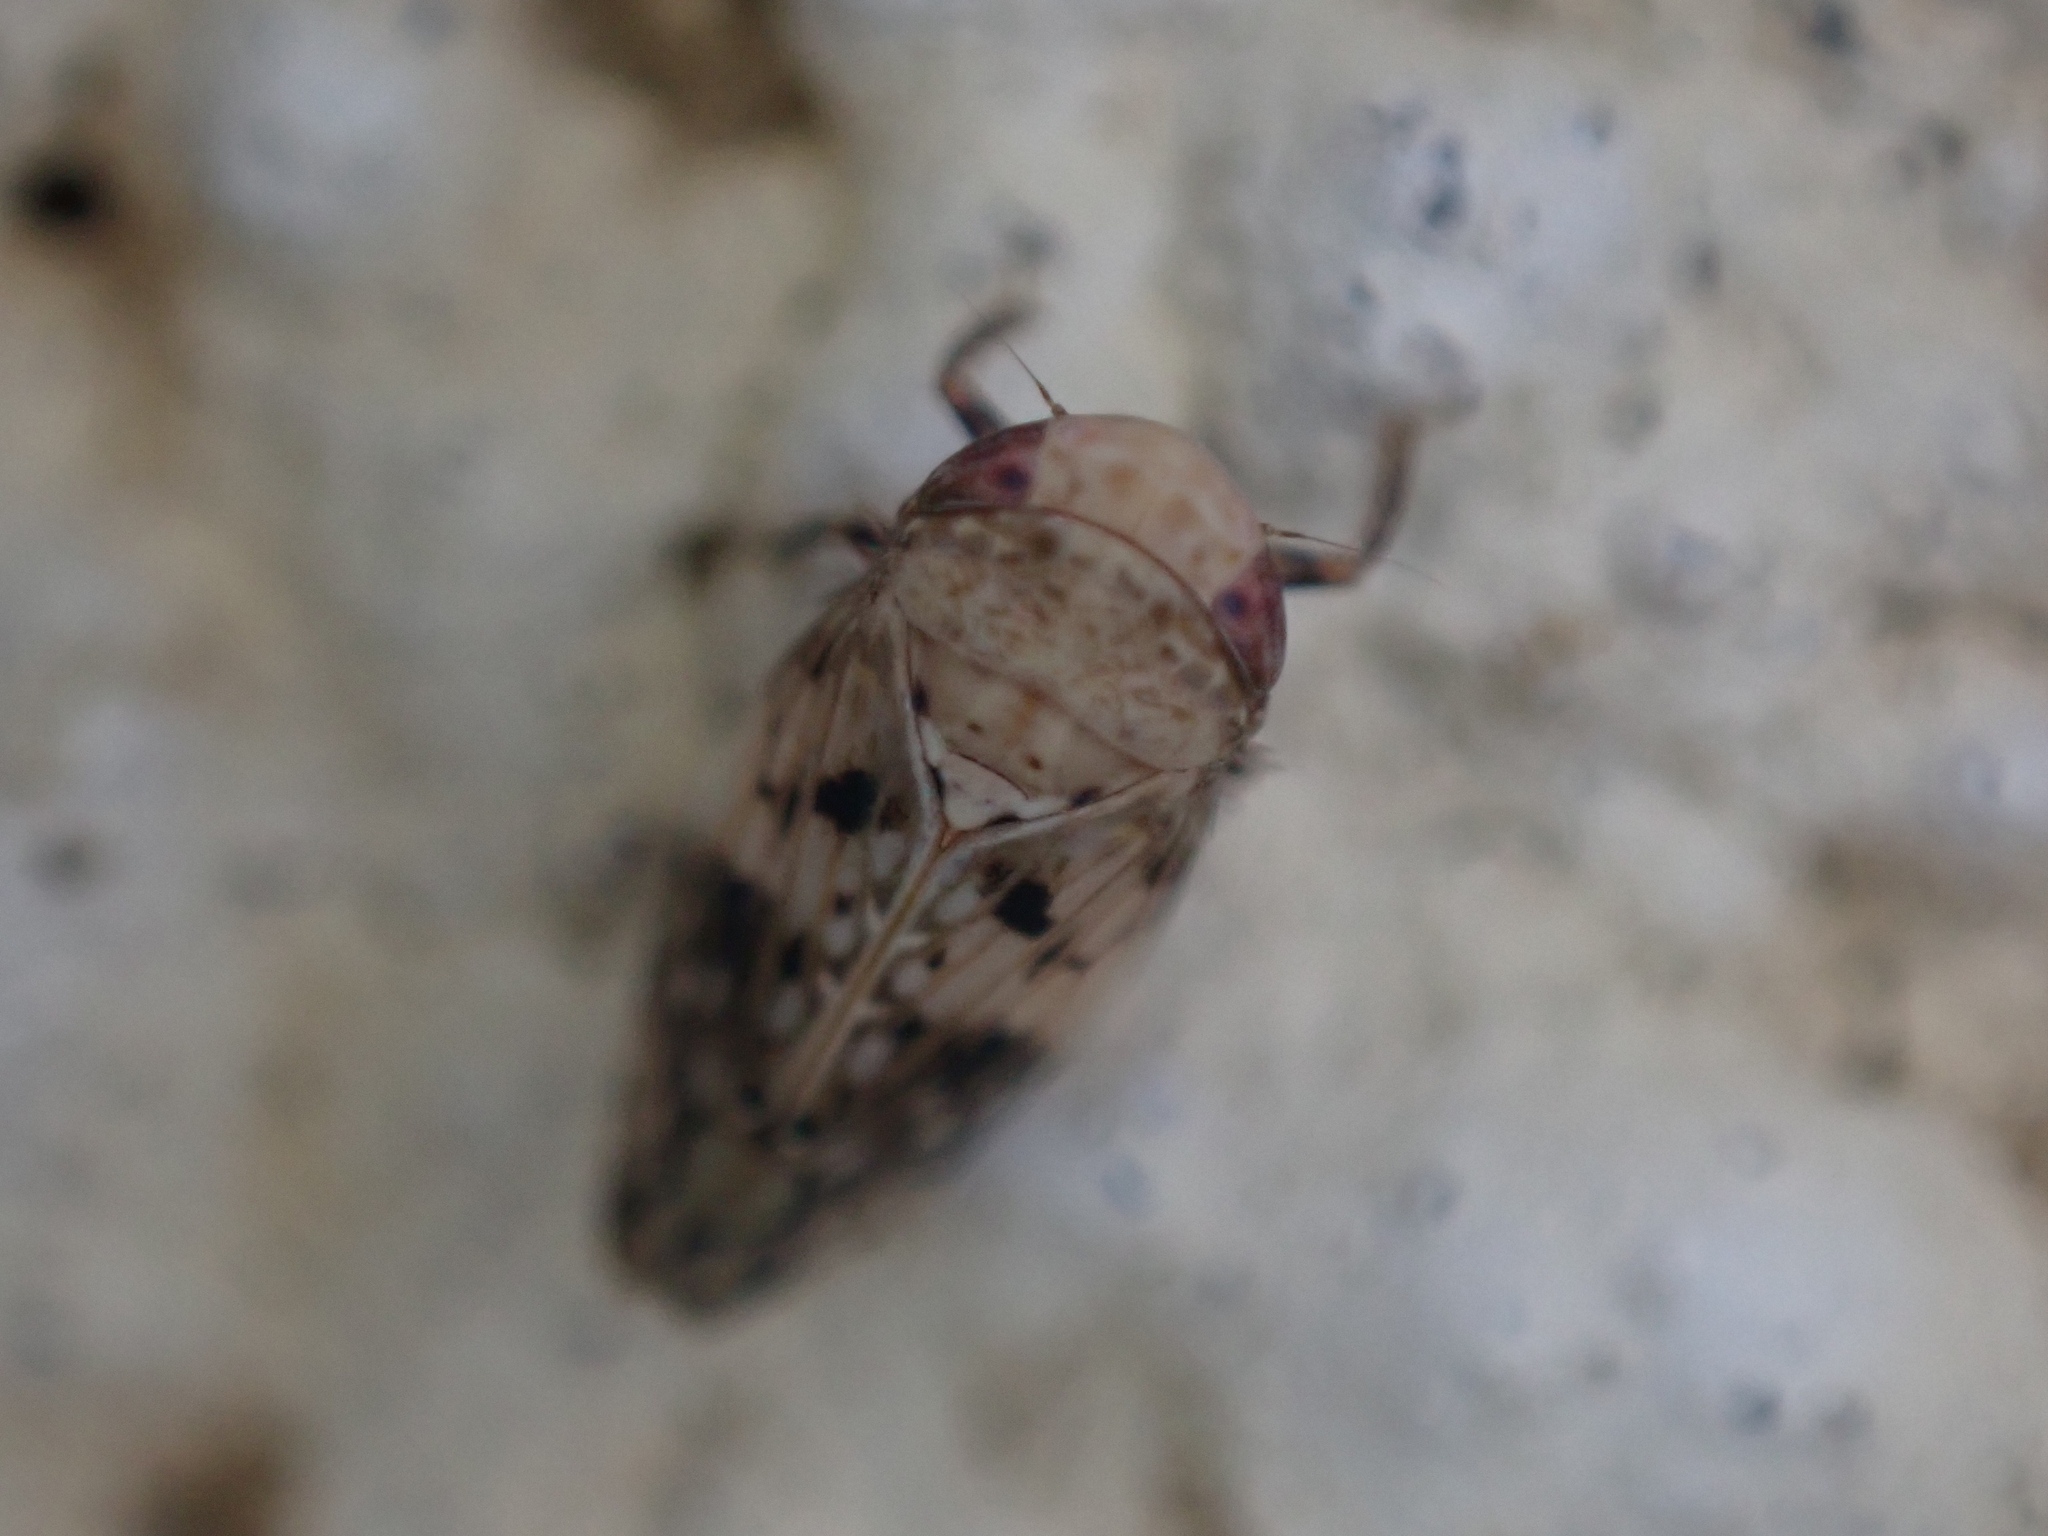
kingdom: Animalia
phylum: Arthropoda
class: Insecta
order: Hemiptera
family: Cicadellidae
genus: Menosoma
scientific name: Menosoma cinctum
